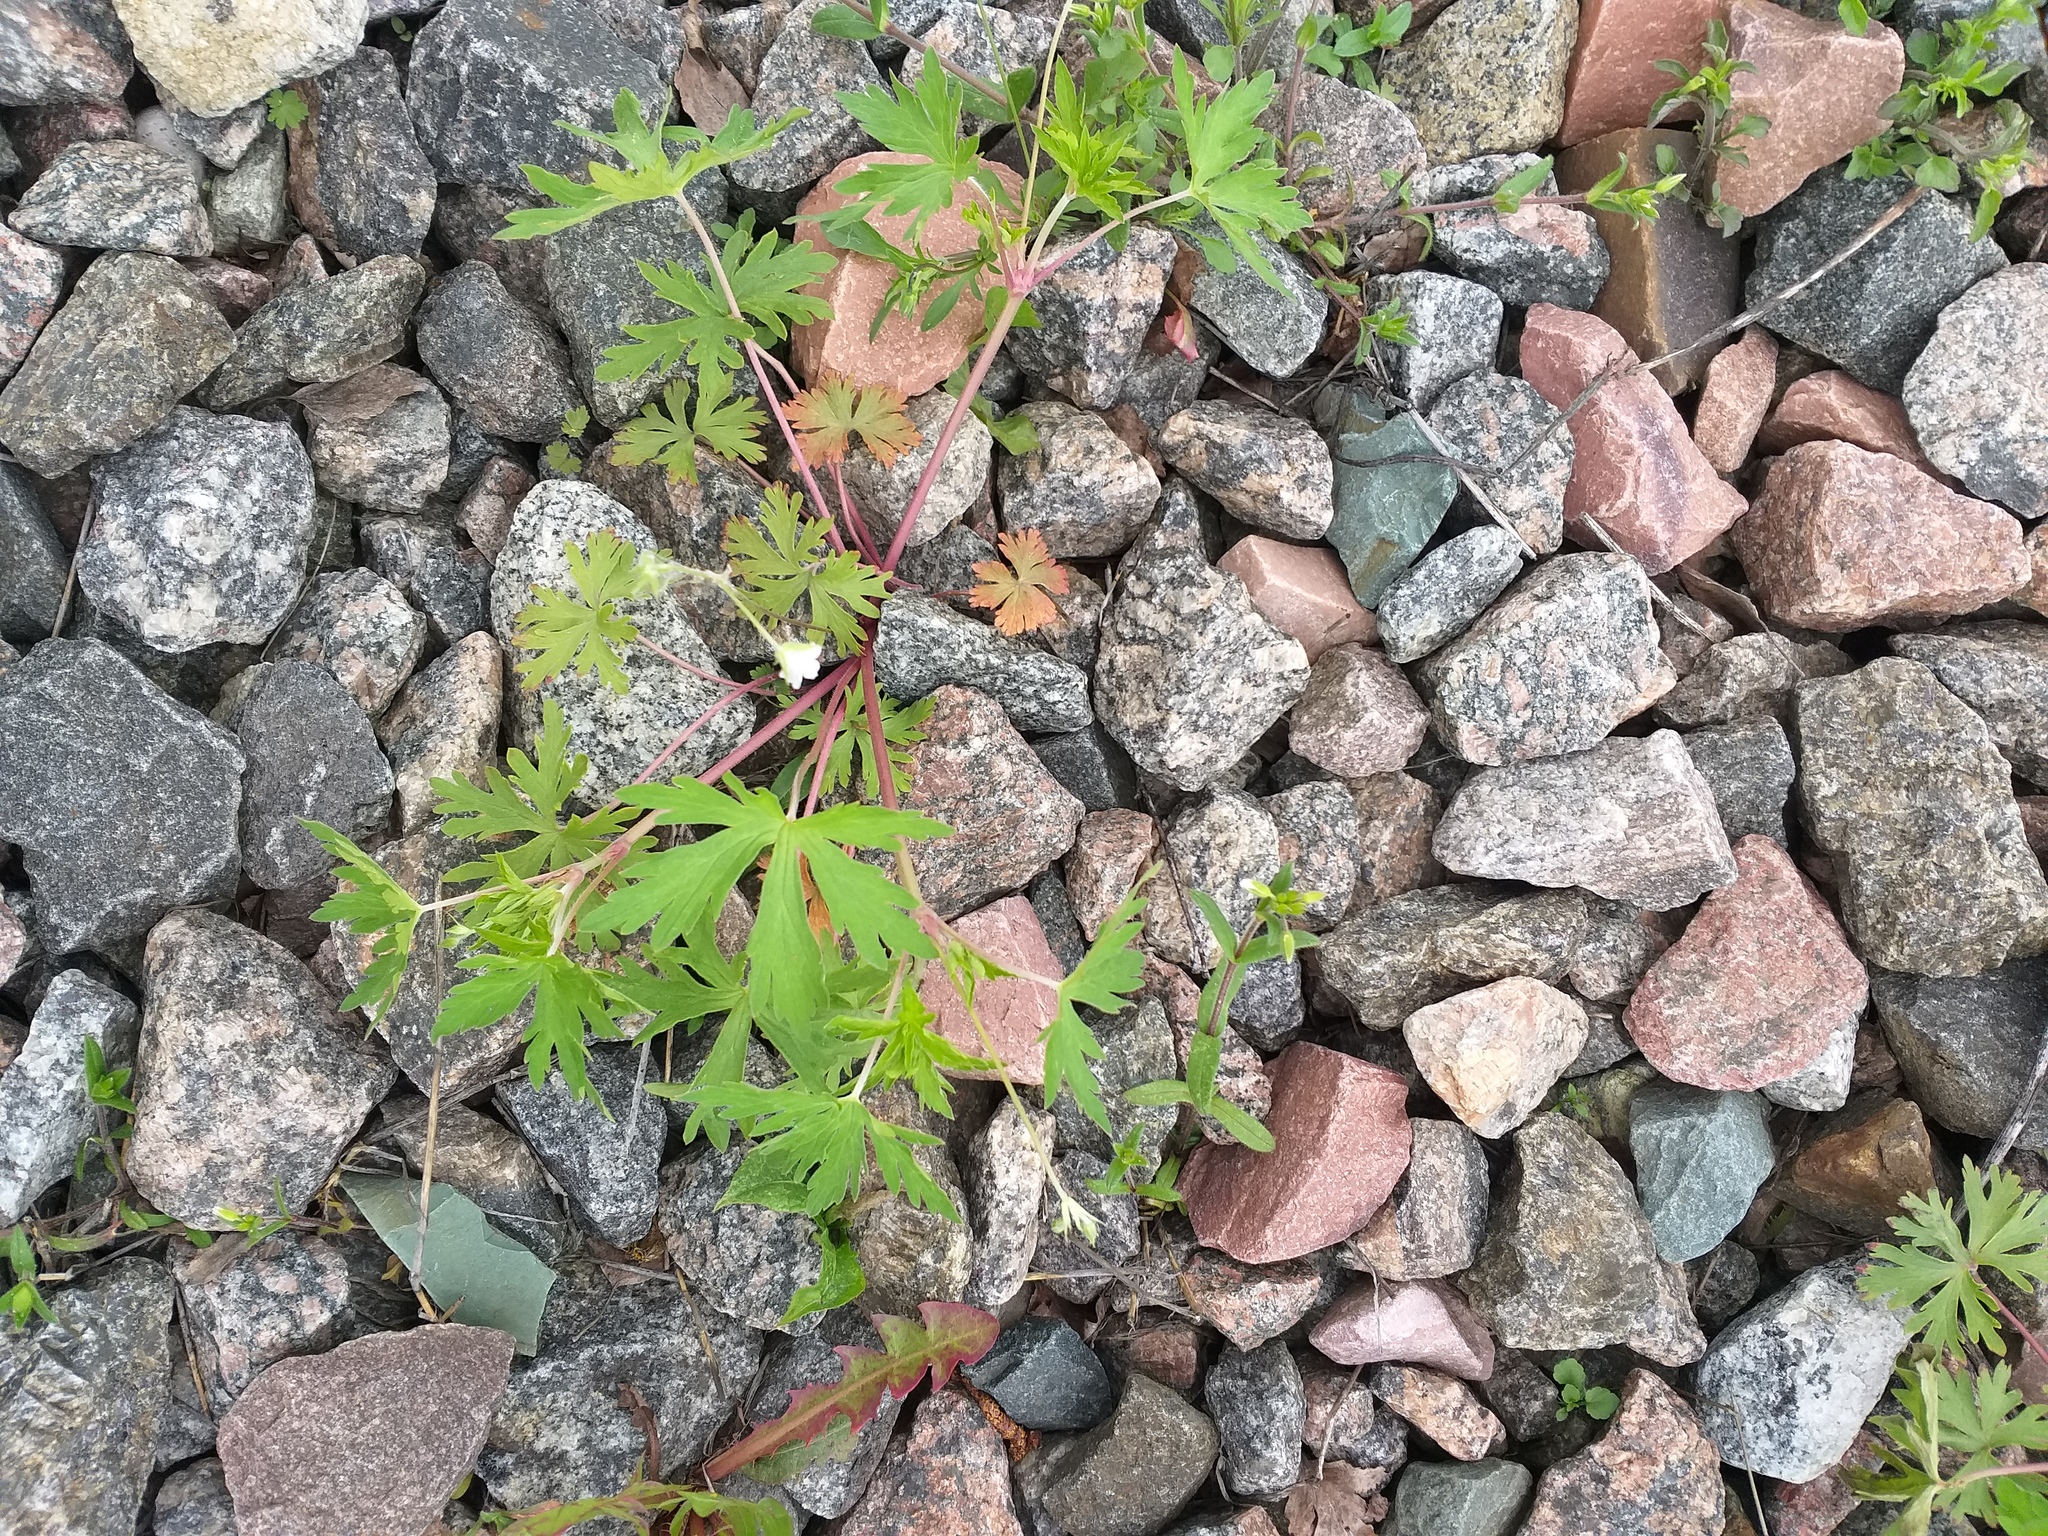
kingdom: Plantae
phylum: Tracheophyta
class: Magnoliopsida
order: Geraniales
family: Geraniaceae
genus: Geranium
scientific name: Geranium sibiricum
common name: Siberian crane's-bill
